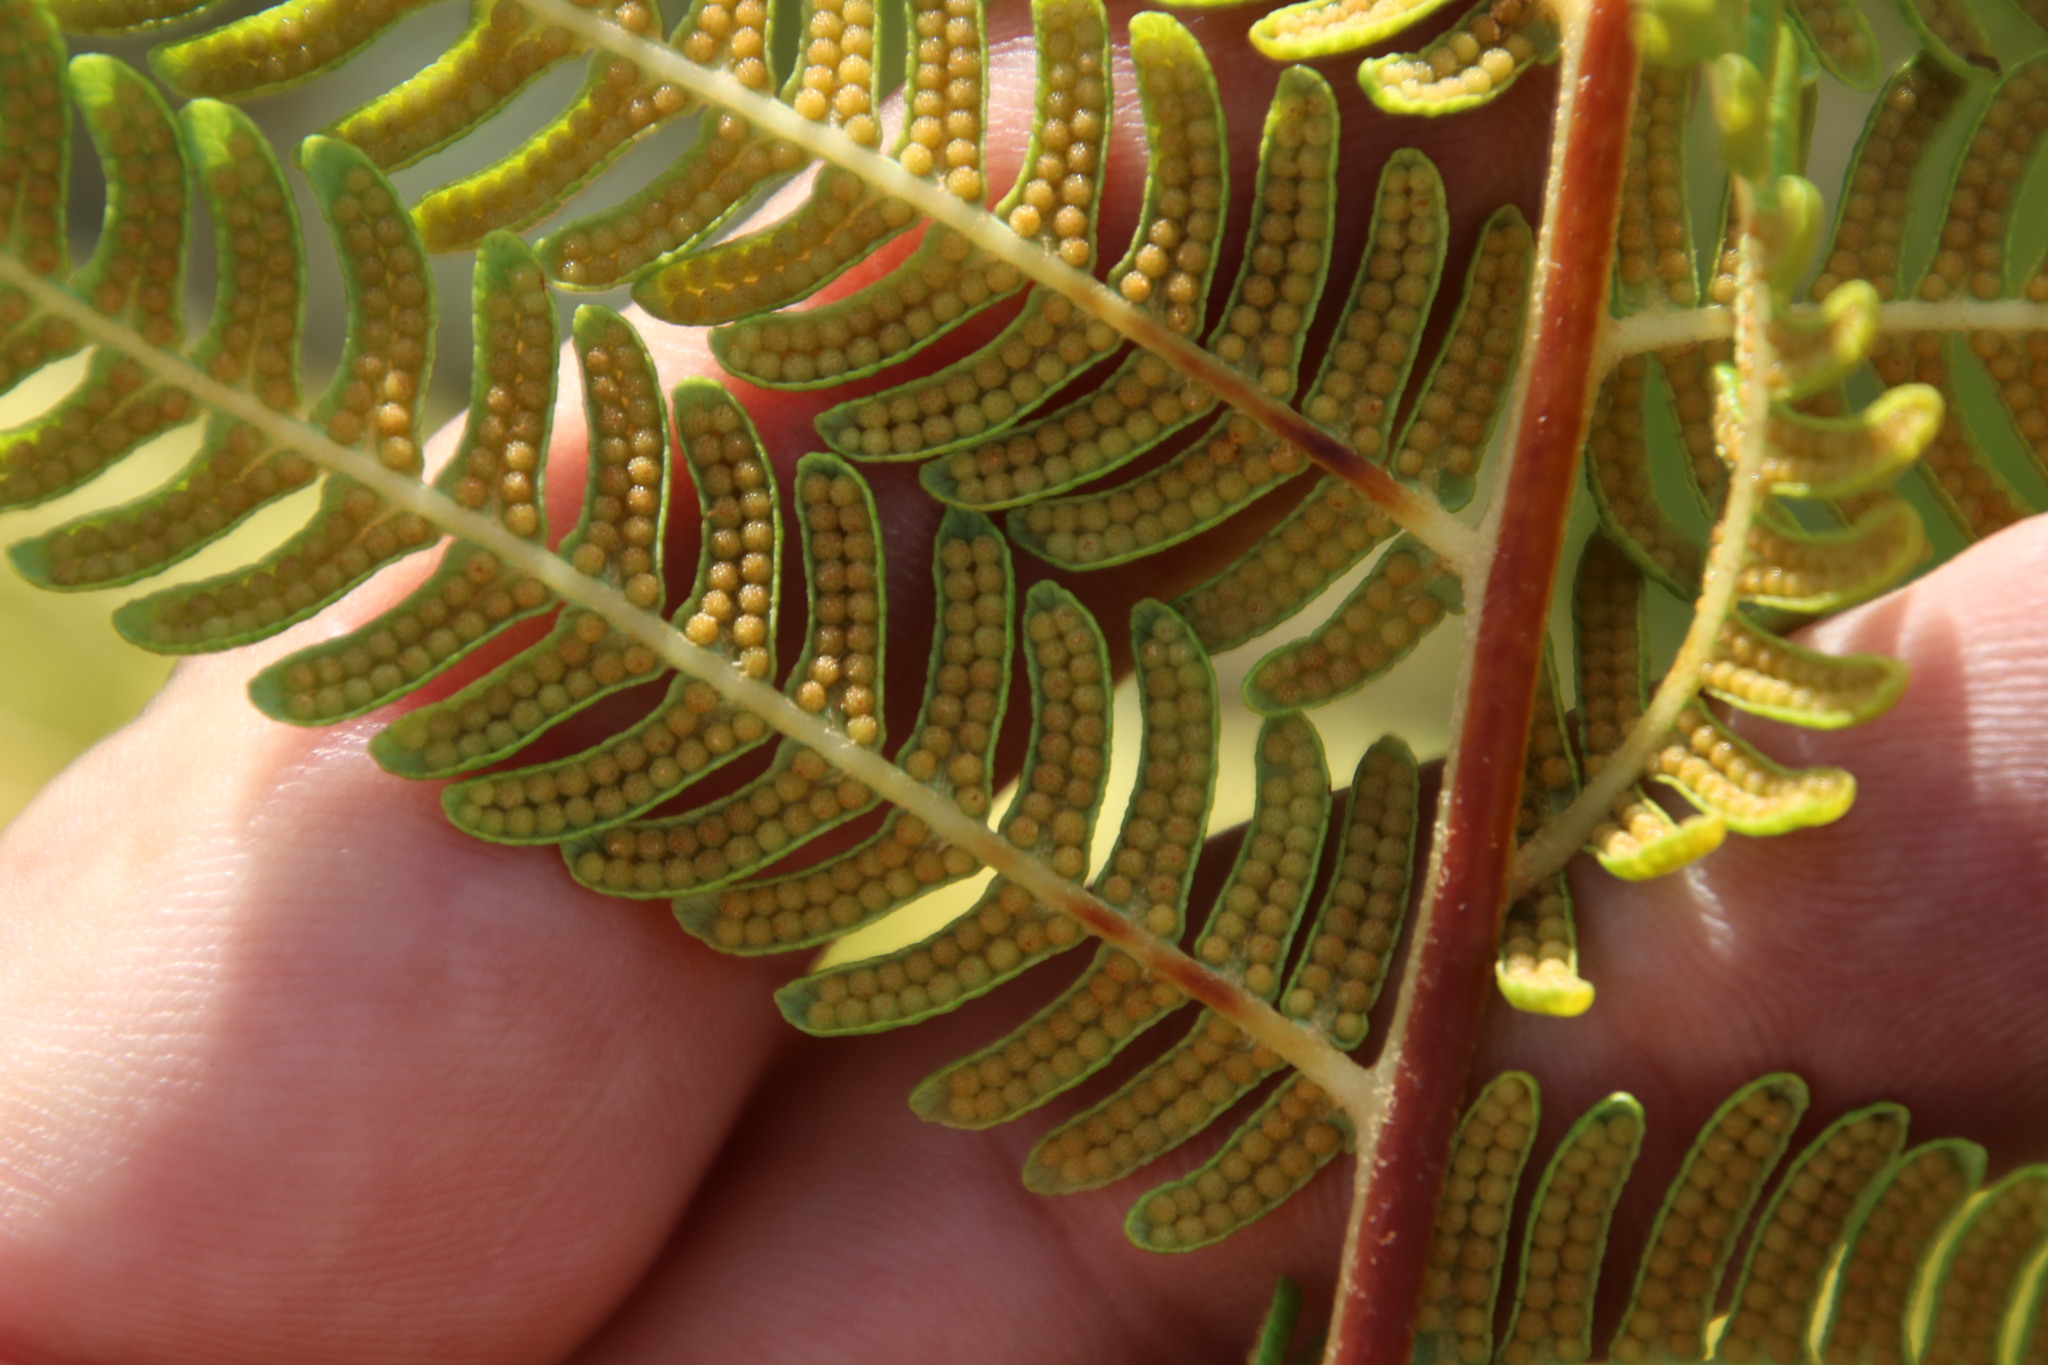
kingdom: Plantae
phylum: Tracheophyta
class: Polypodiopsida
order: Cyatheales
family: Cyatheaceae
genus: Sphaeropteris
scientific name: Sphaeropteris cooperi
